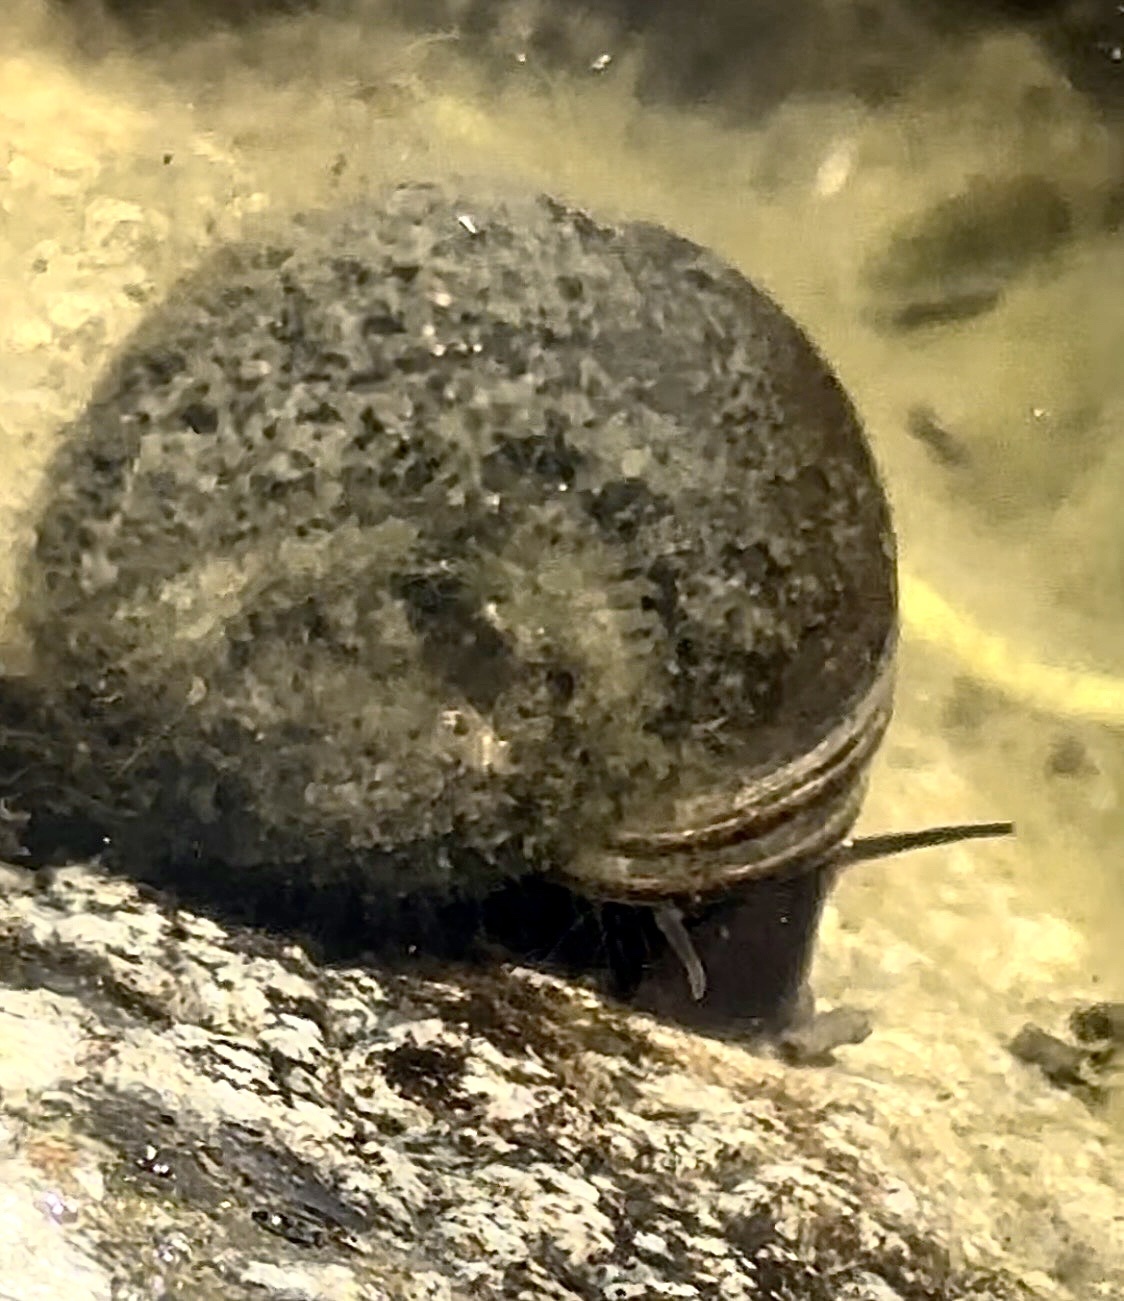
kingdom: Animalia
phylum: Mollusca
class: Gastropoda
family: Planorbidae
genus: Planorbarius
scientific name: Planorbarius corneus
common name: Great ramshorn
